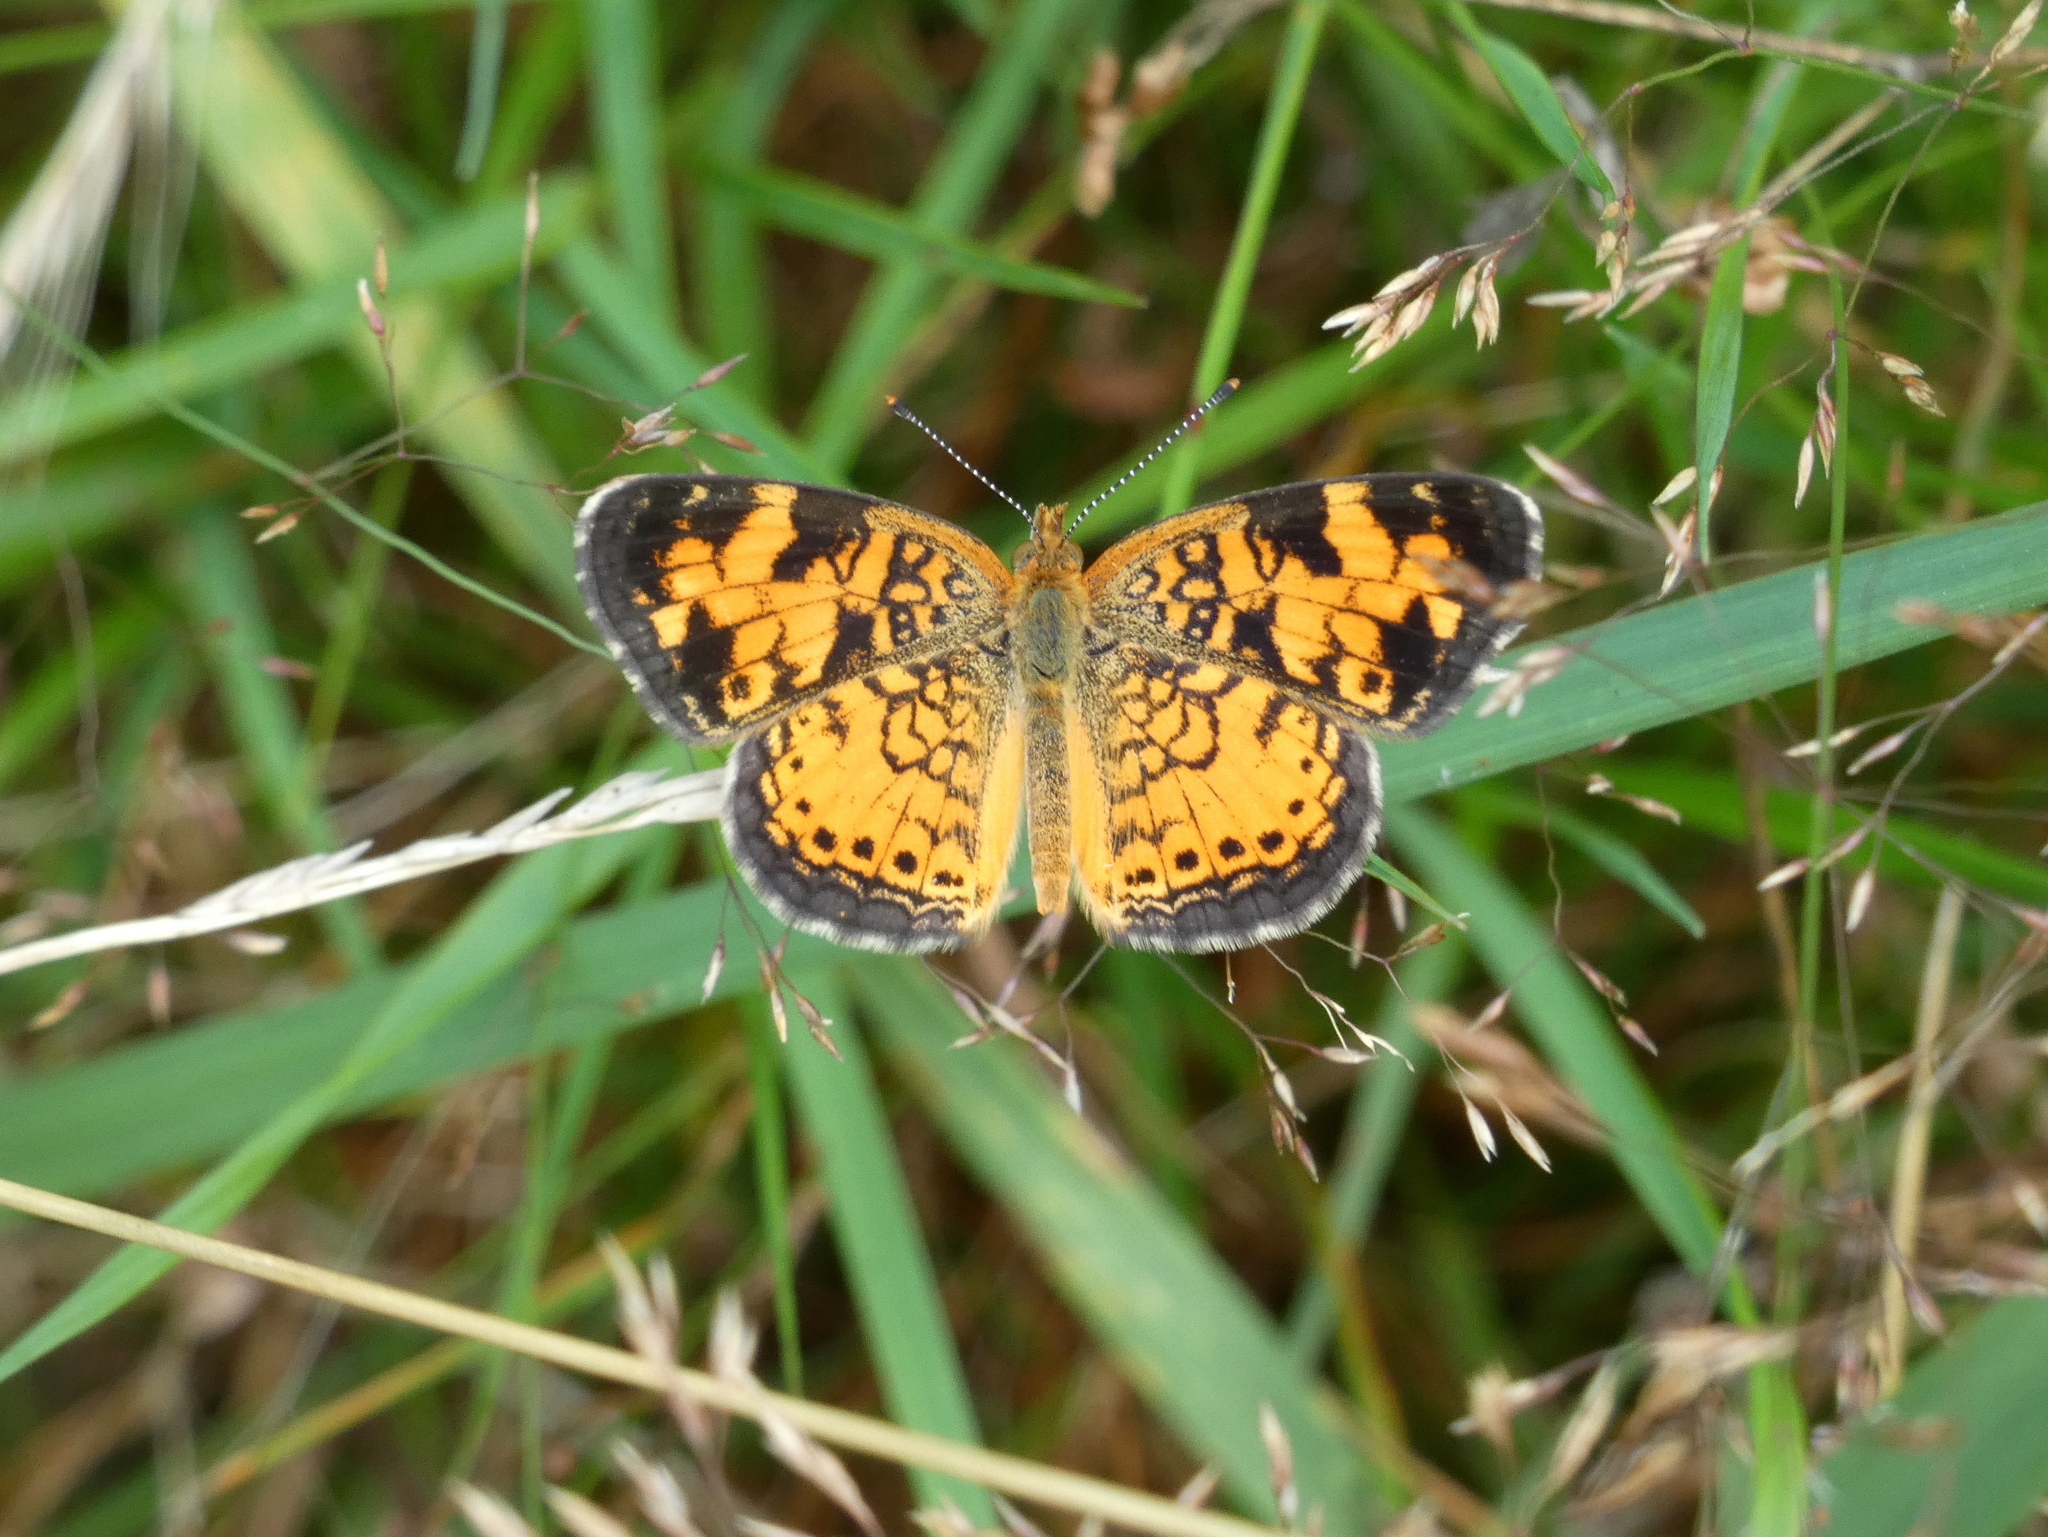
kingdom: Animalia
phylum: Arthropoda
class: Insecta
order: Lepidoptera
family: Nymphalidae
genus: Phyciodes
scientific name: Phyciodes tharos
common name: Pearl crescent
